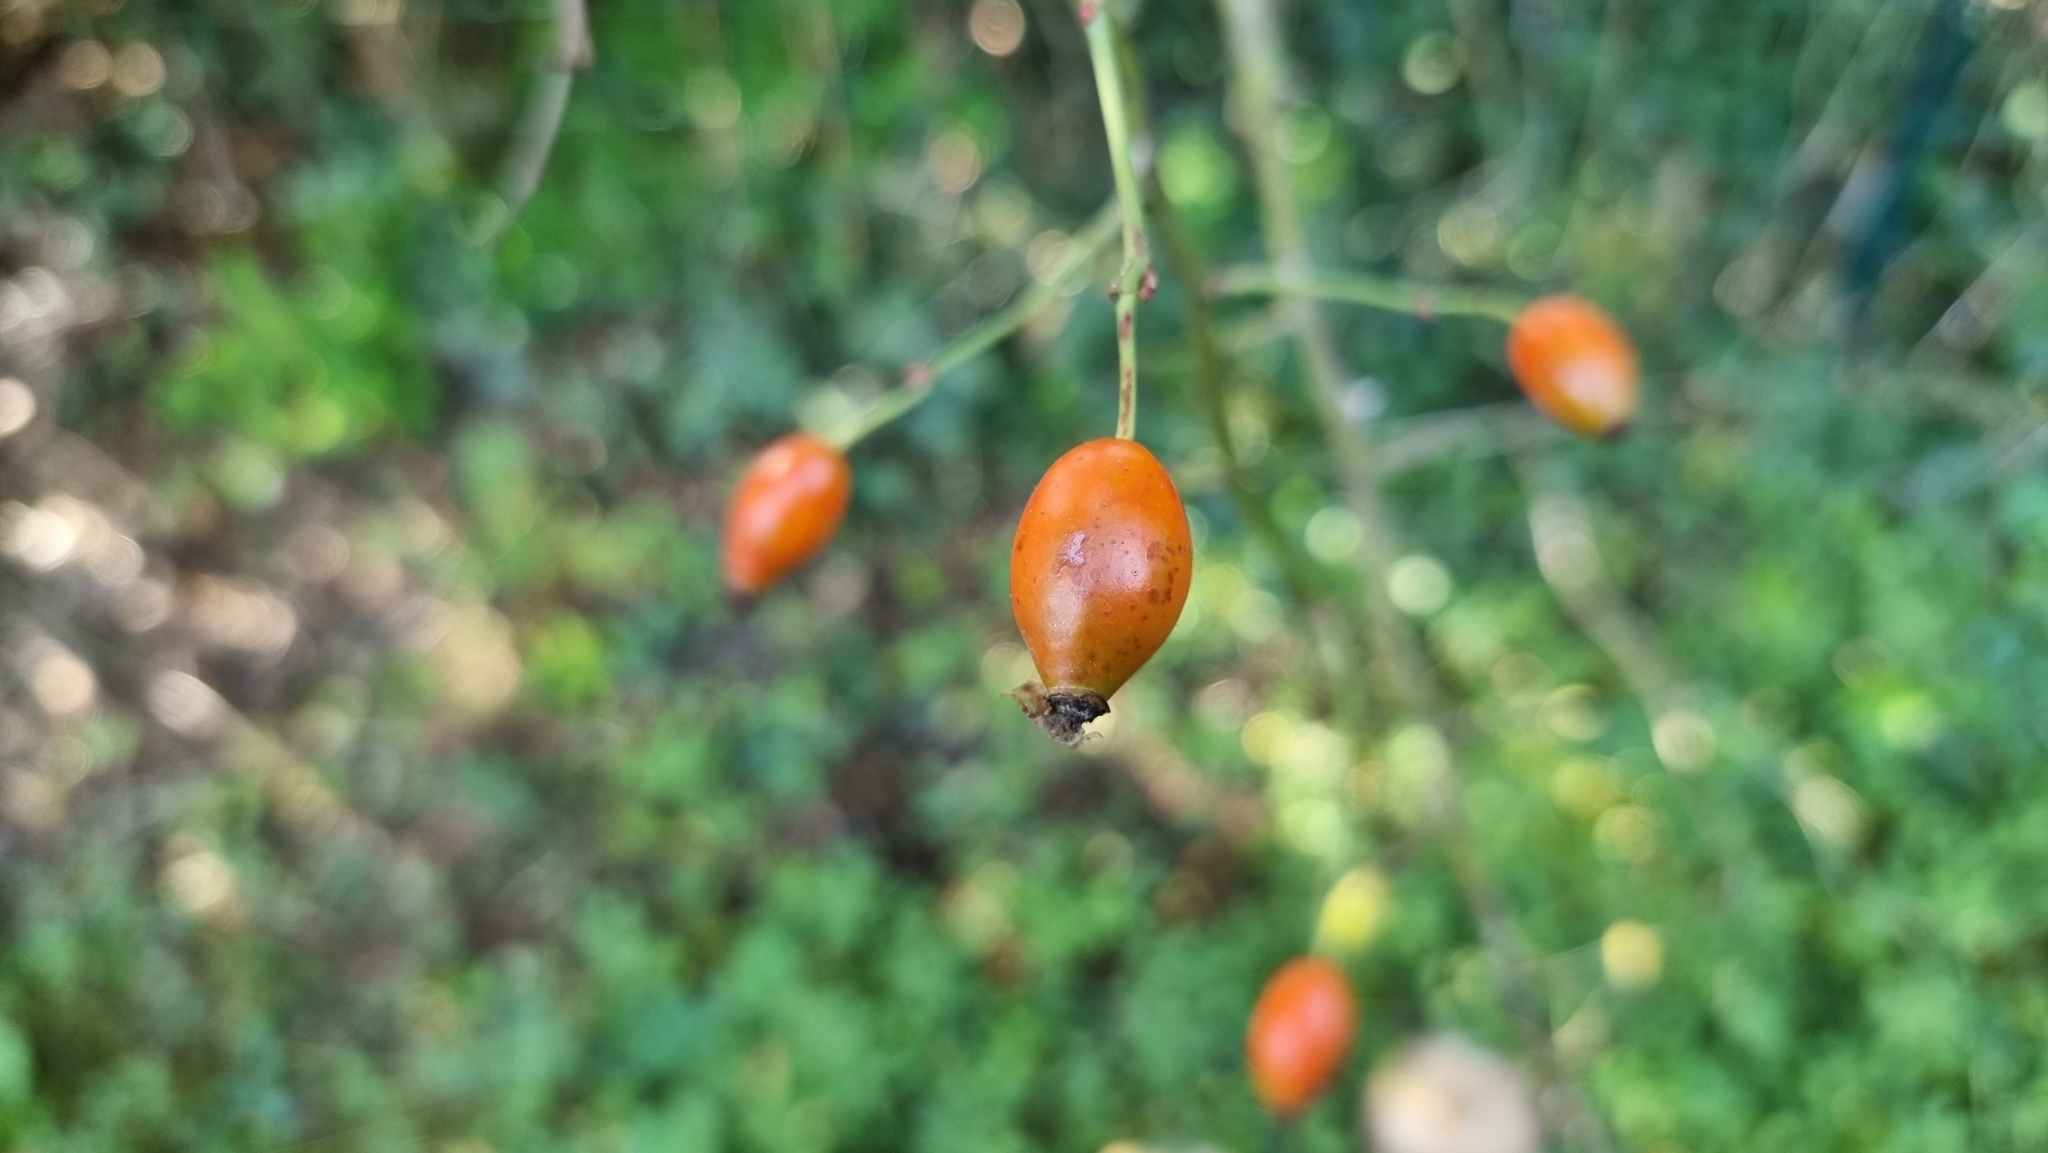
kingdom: Plantae
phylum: Tracheophyta
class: Magnoliopsida
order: Rosales
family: Rosaceae
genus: Rosa
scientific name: Rosa canina
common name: Dog rose
